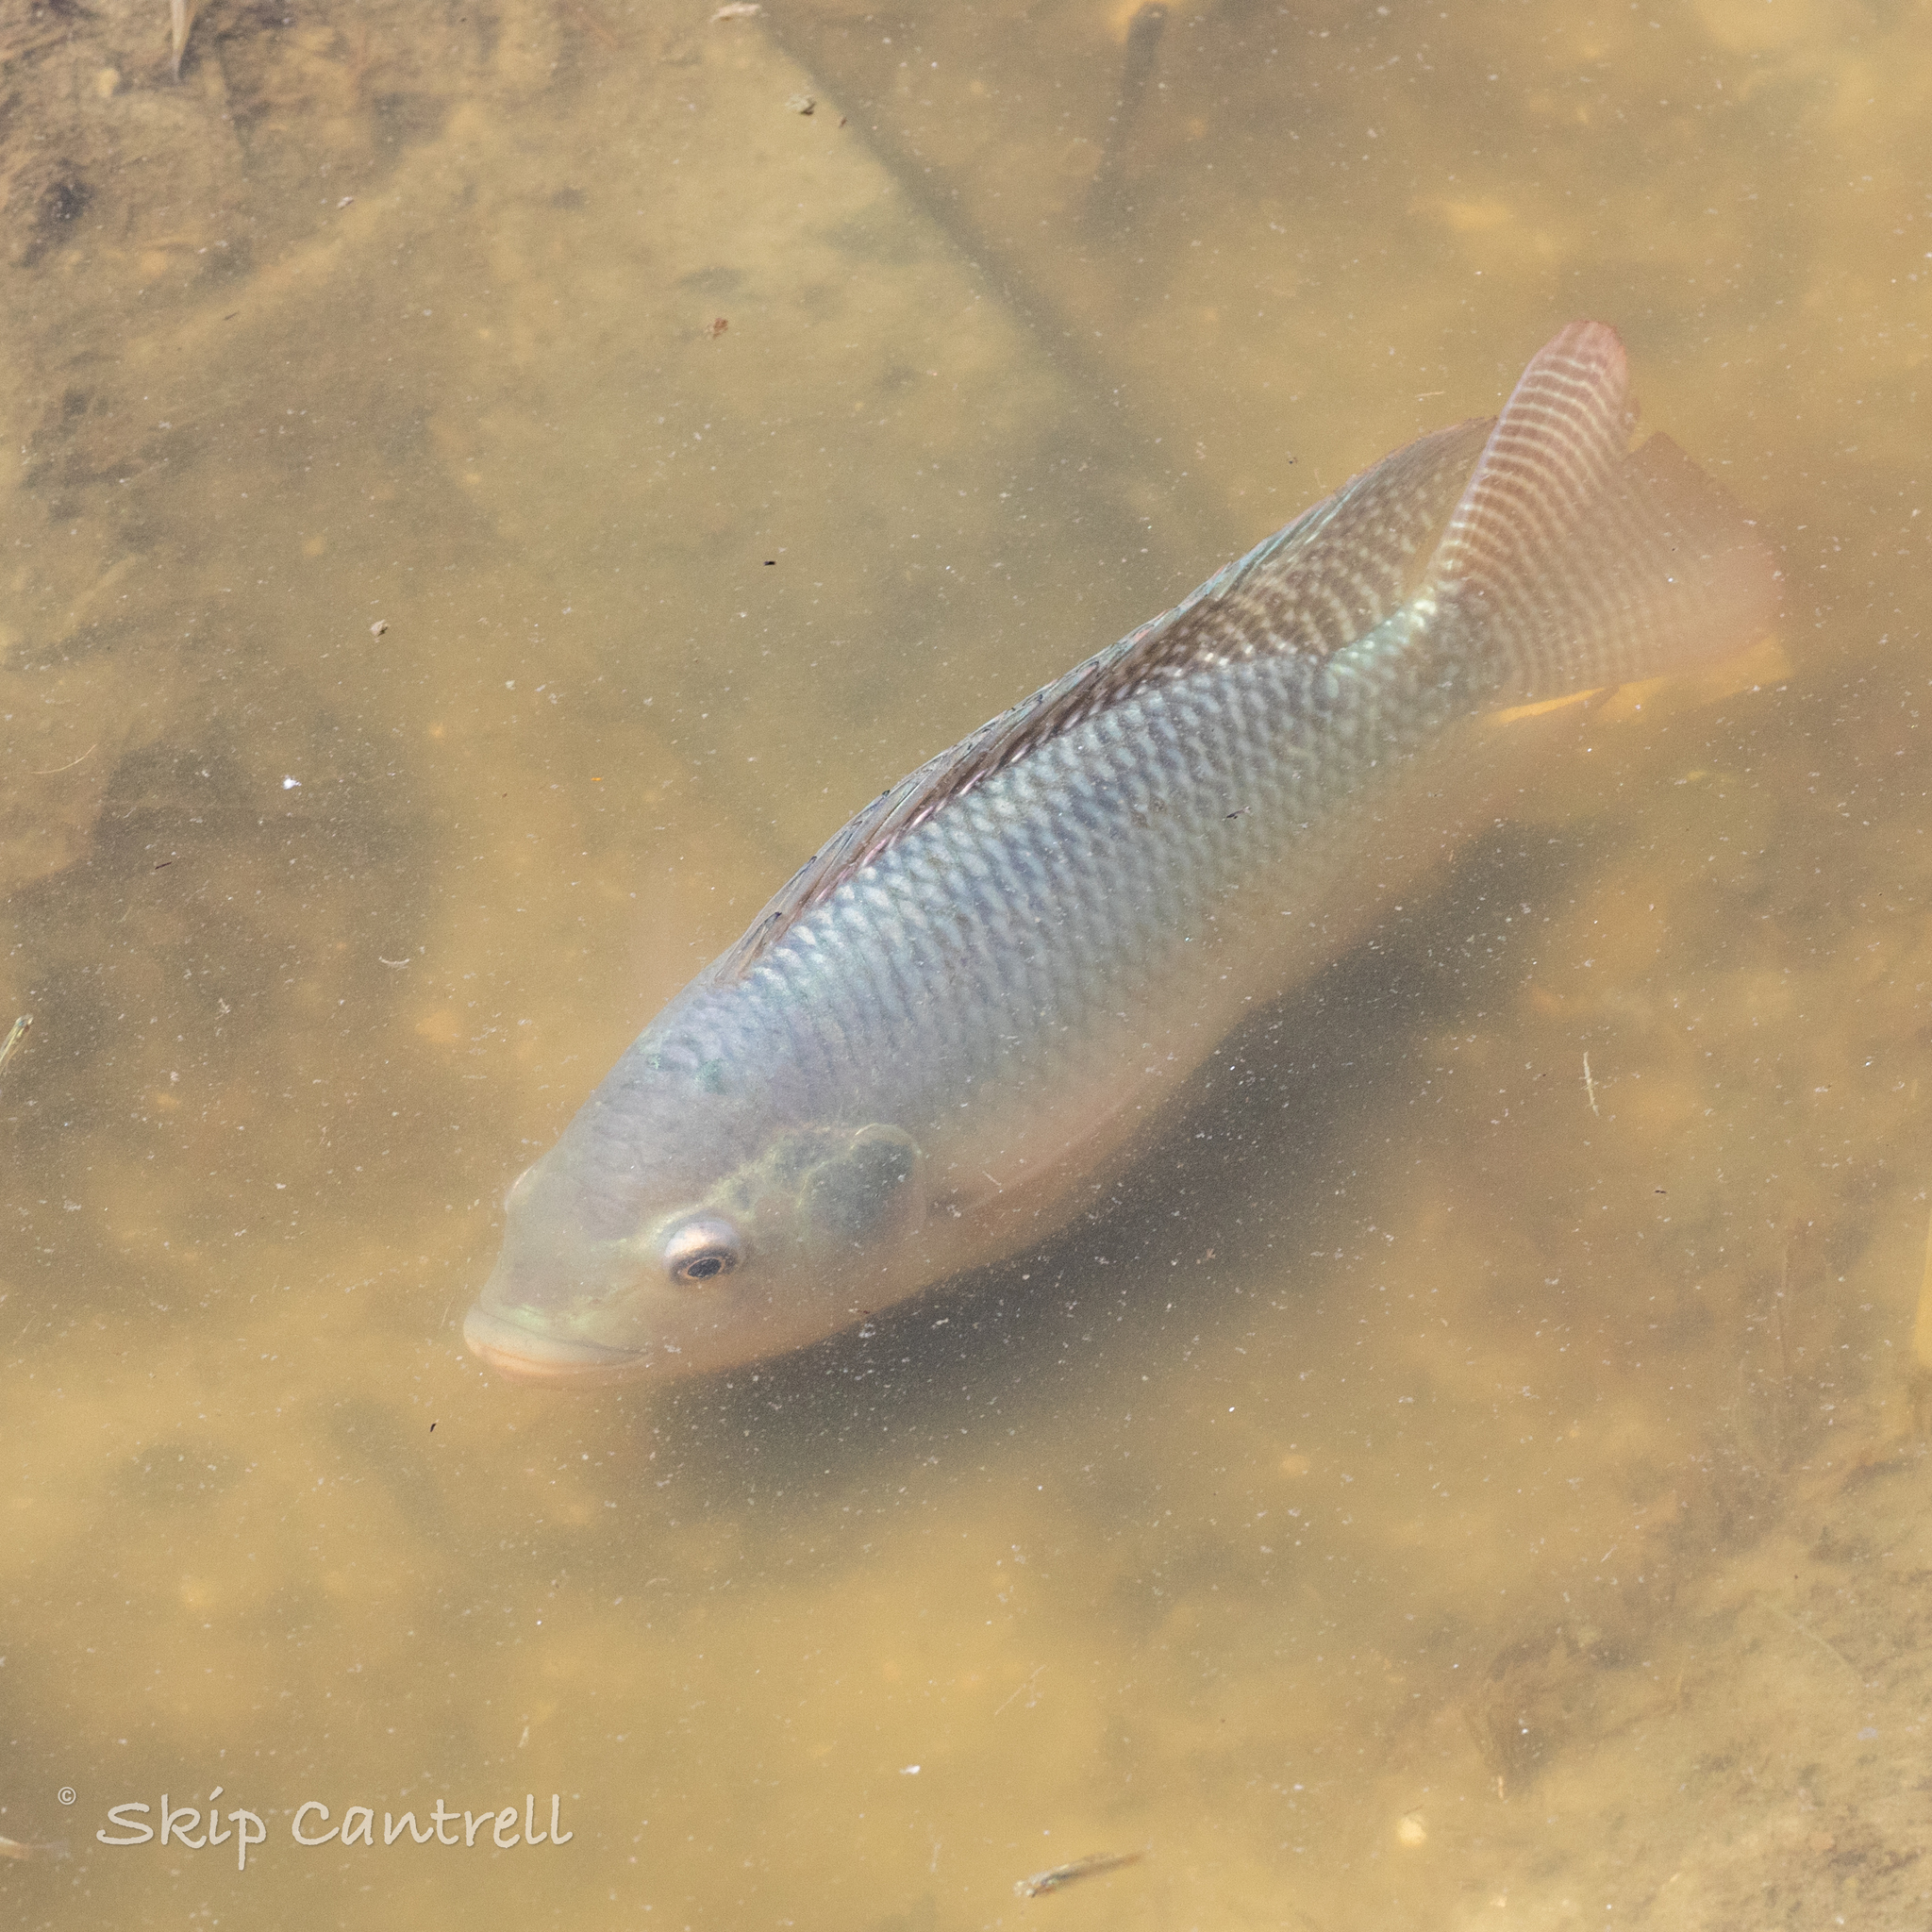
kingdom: Animalia
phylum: Chordata
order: Perciformes
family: Cichlidae
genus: Oreochromis
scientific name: Oreochromis niloticus
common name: Nile tilapia
